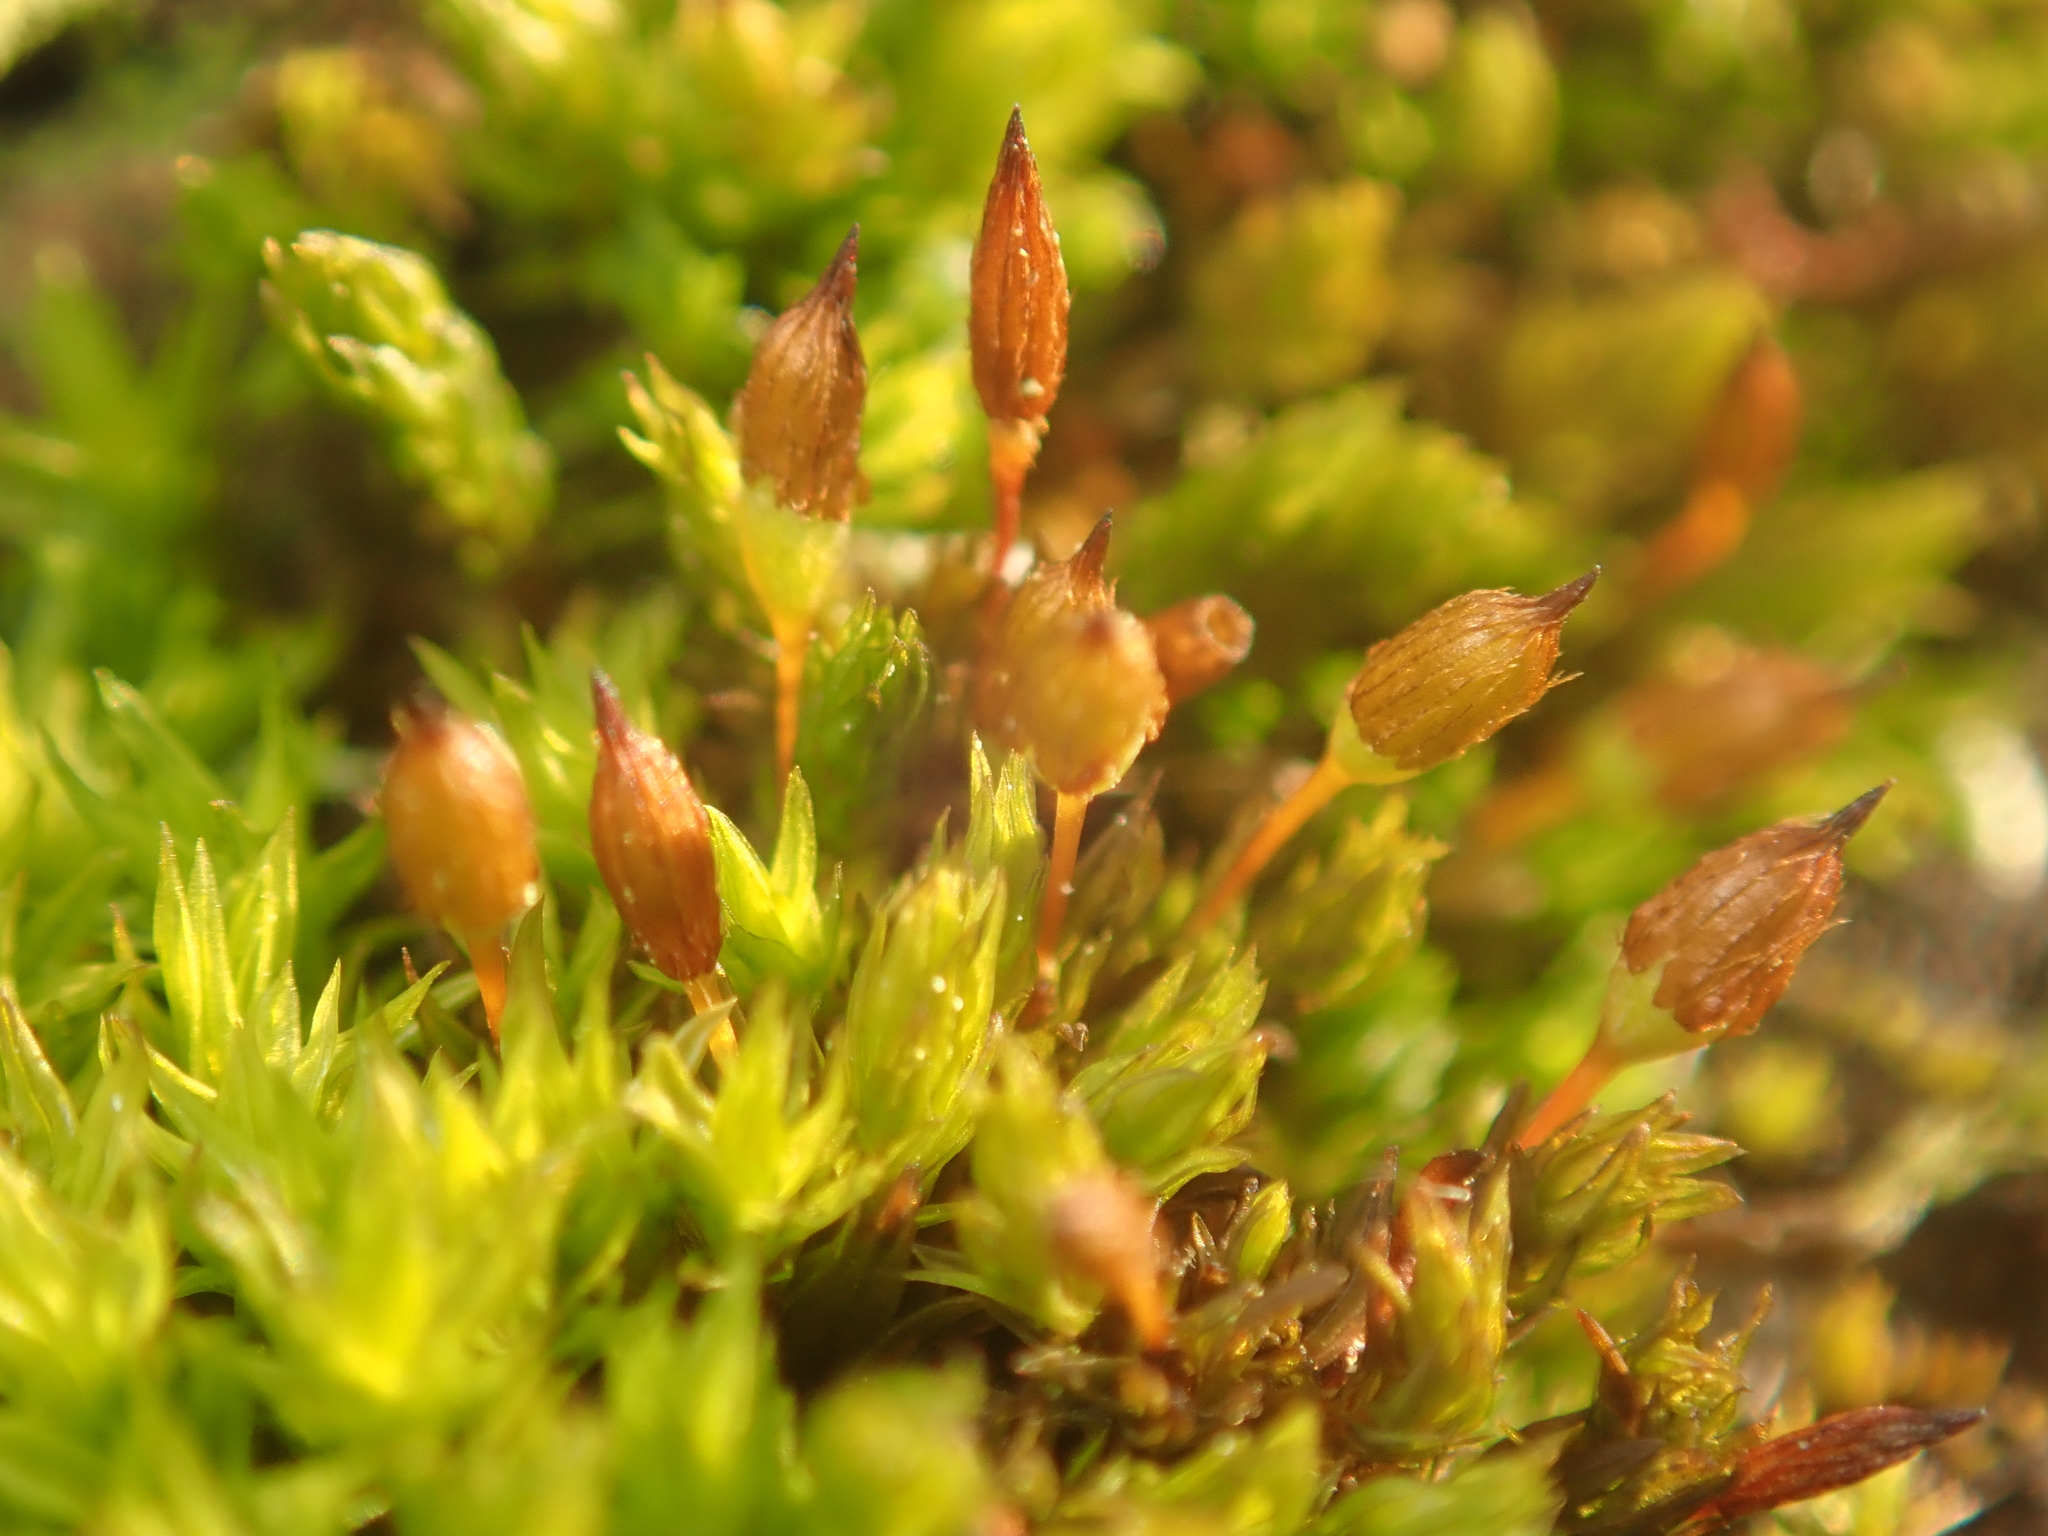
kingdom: Plantae
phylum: Bryophyta
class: Bryopsida
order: Orthotrichales
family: Orthotrichaceae
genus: Orthotrichum
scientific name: Orthotrichum anomalum
